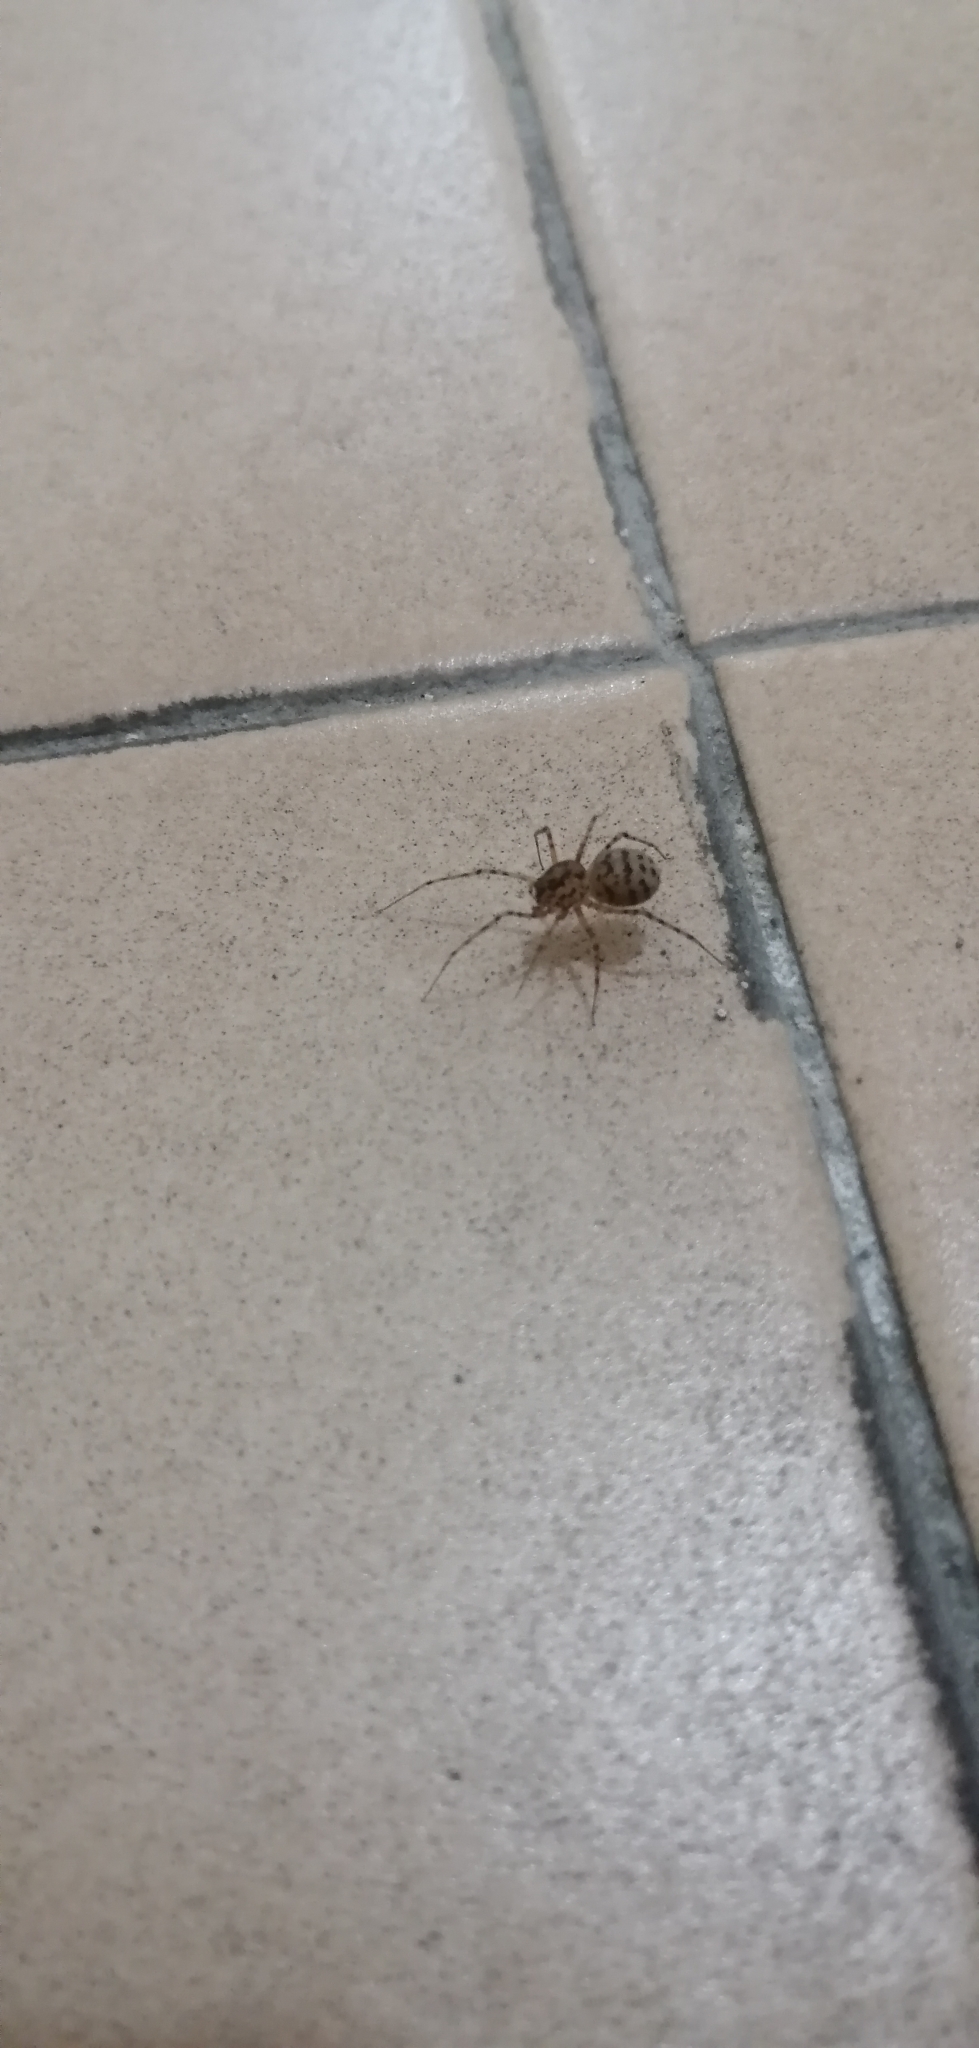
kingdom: Animalia
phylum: Arthropoda
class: Arachnida
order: Araneae
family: Scytodidae
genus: Scytodes
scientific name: Scytodes thoracica
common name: Spitting spider
